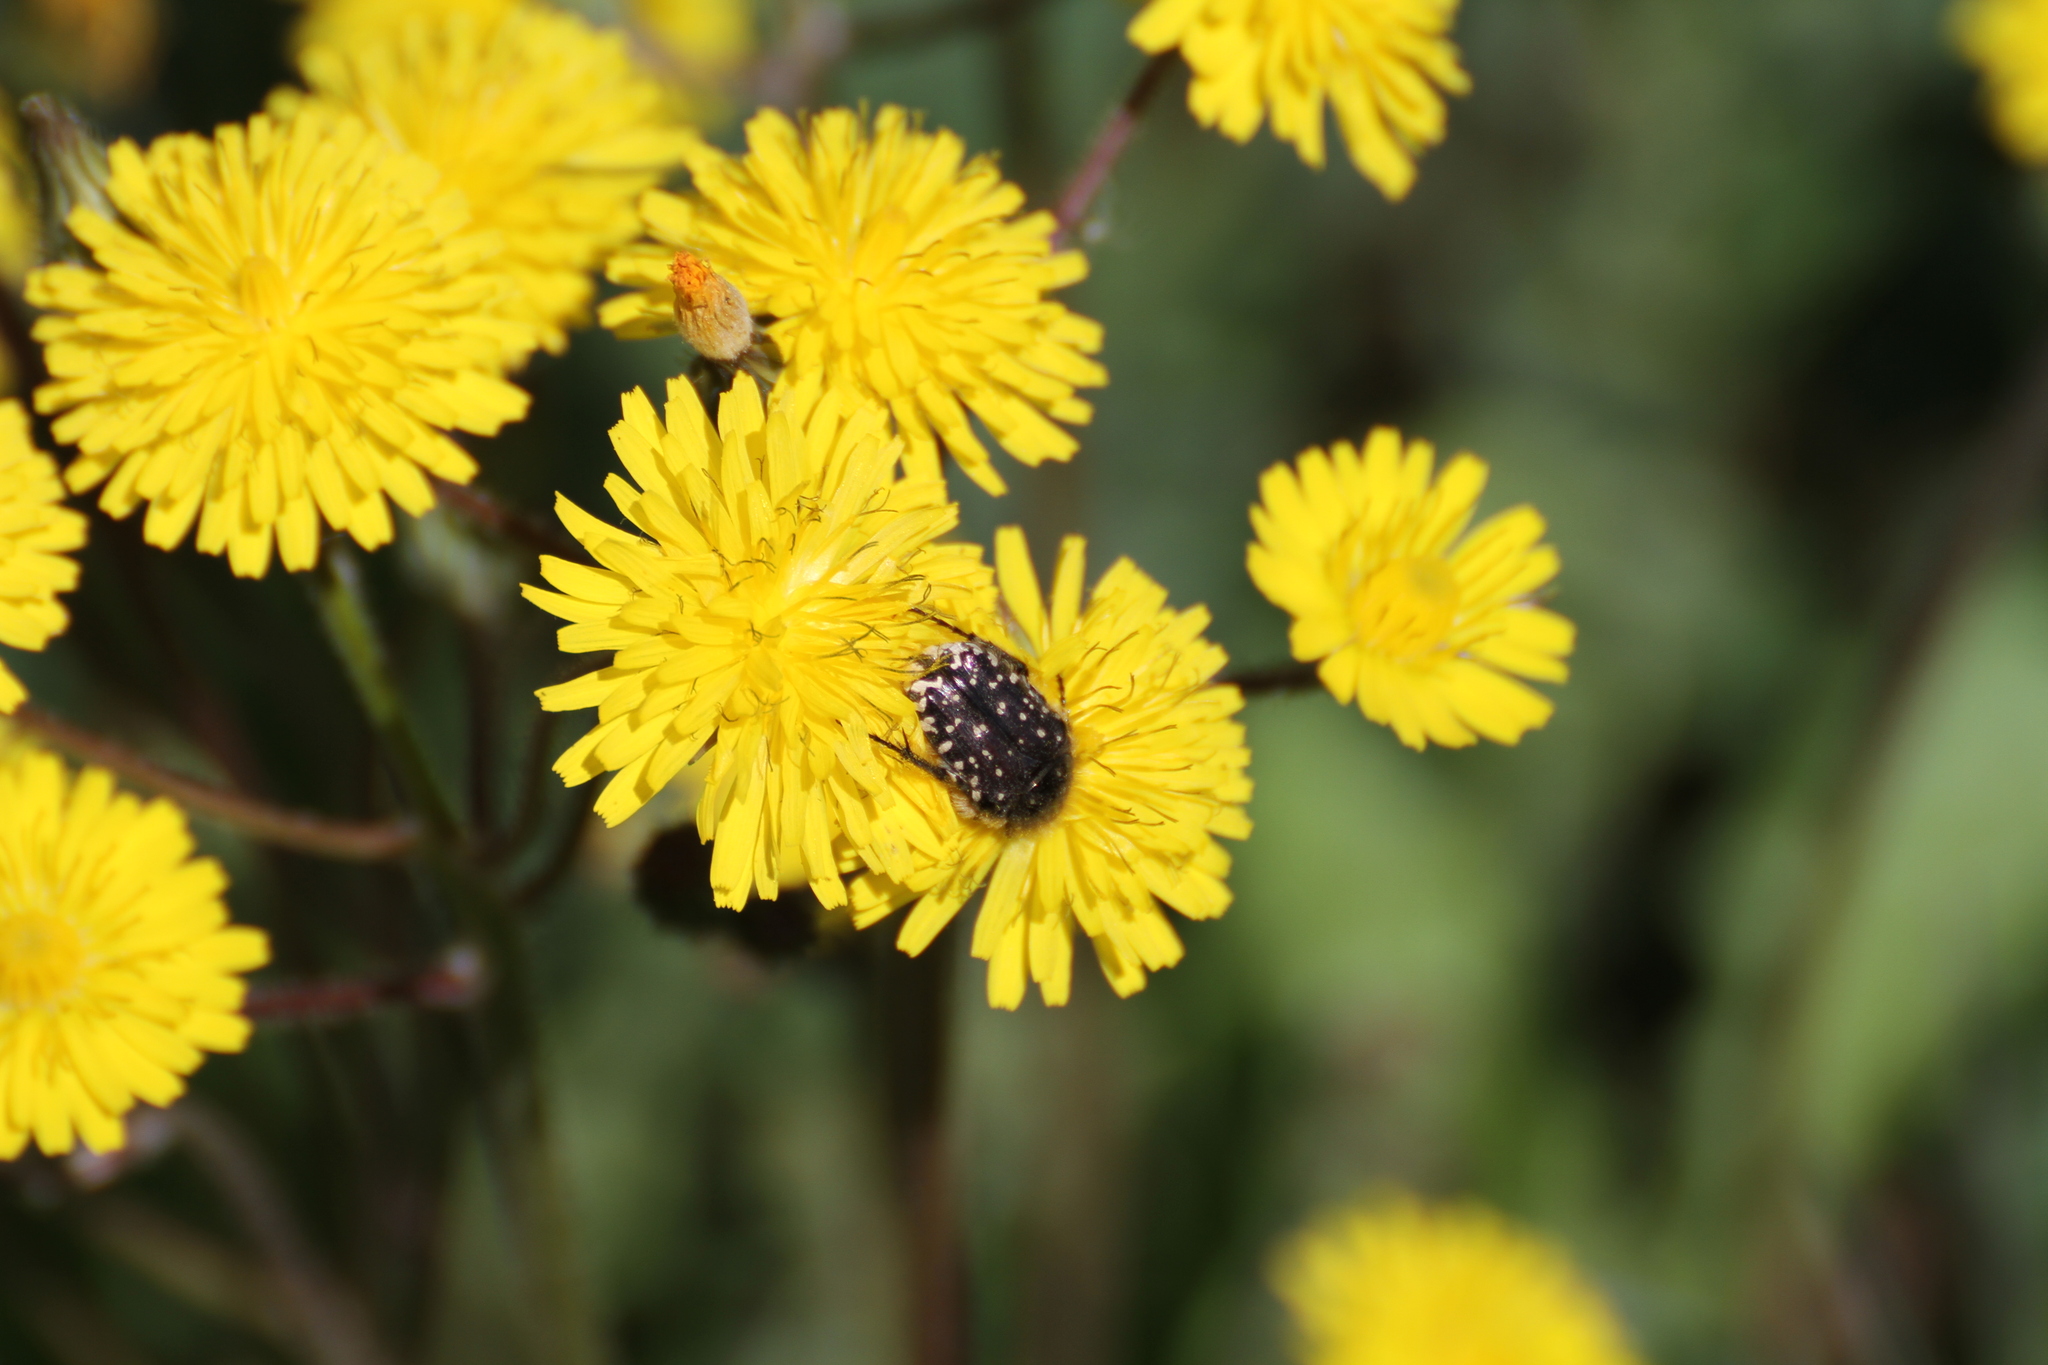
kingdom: Animalia
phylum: Arthropoda
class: Insecta
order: Coleoptera
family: Scarabaeidae
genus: Oxythyrea
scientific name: Oxythyrea funesta
